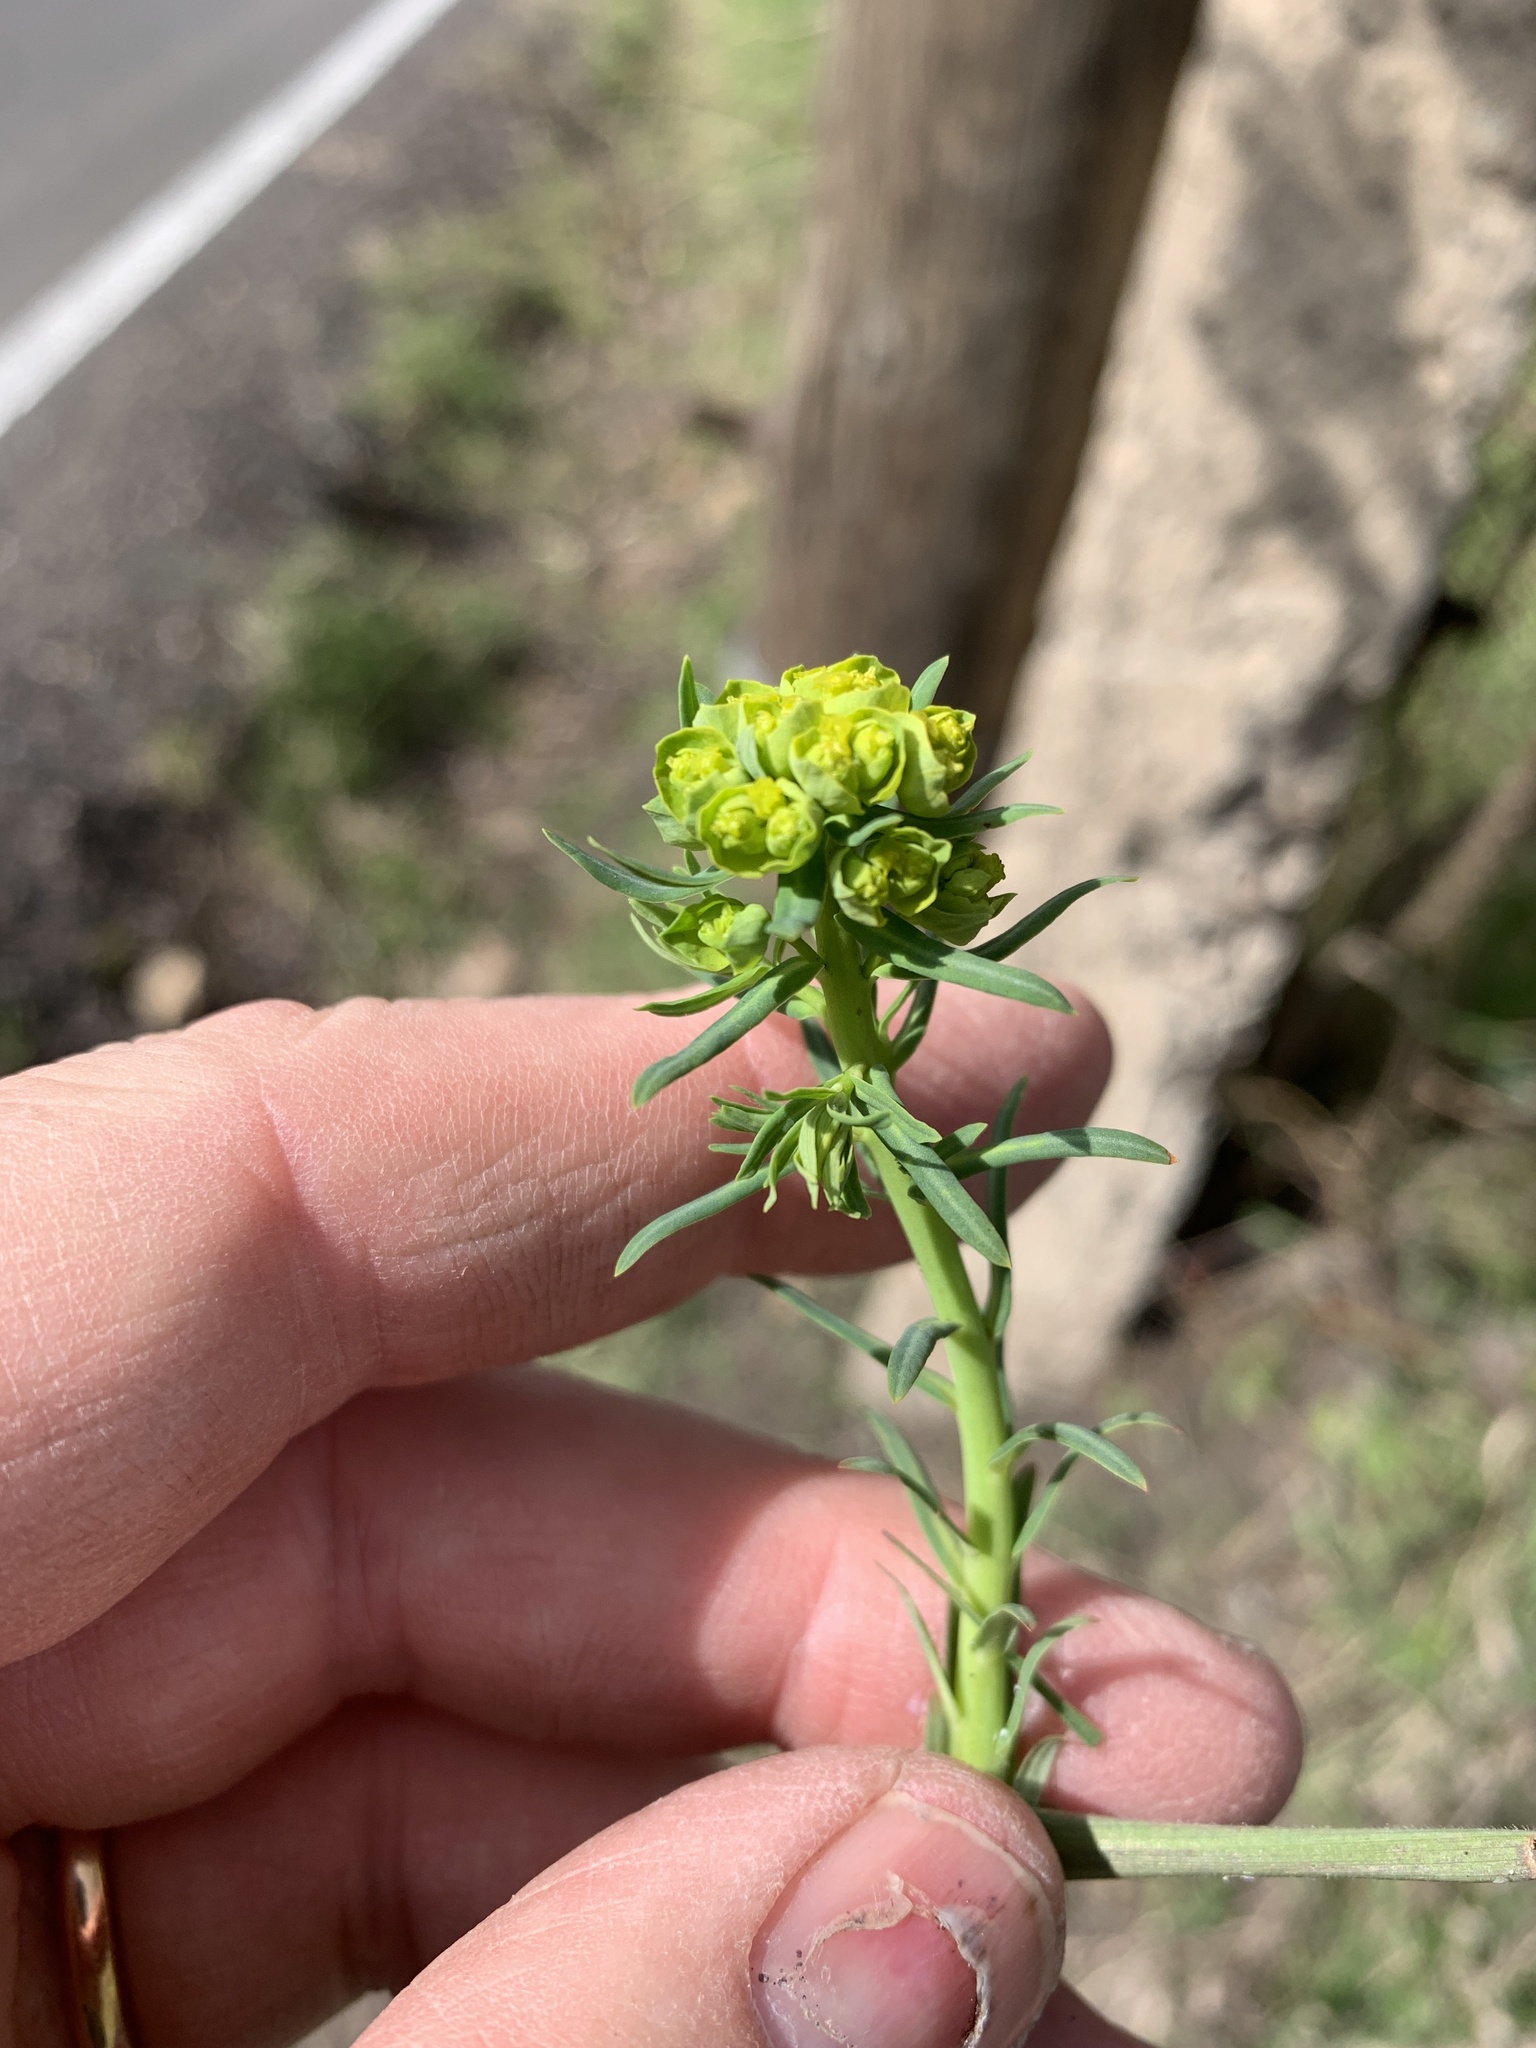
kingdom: Plantae
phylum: Tracheophyta
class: Magnoliopsida
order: Malpighiales
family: Euphorbiaceae
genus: Euphorbia
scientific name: Euphorbia cyparissias
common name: Cypress spurge
